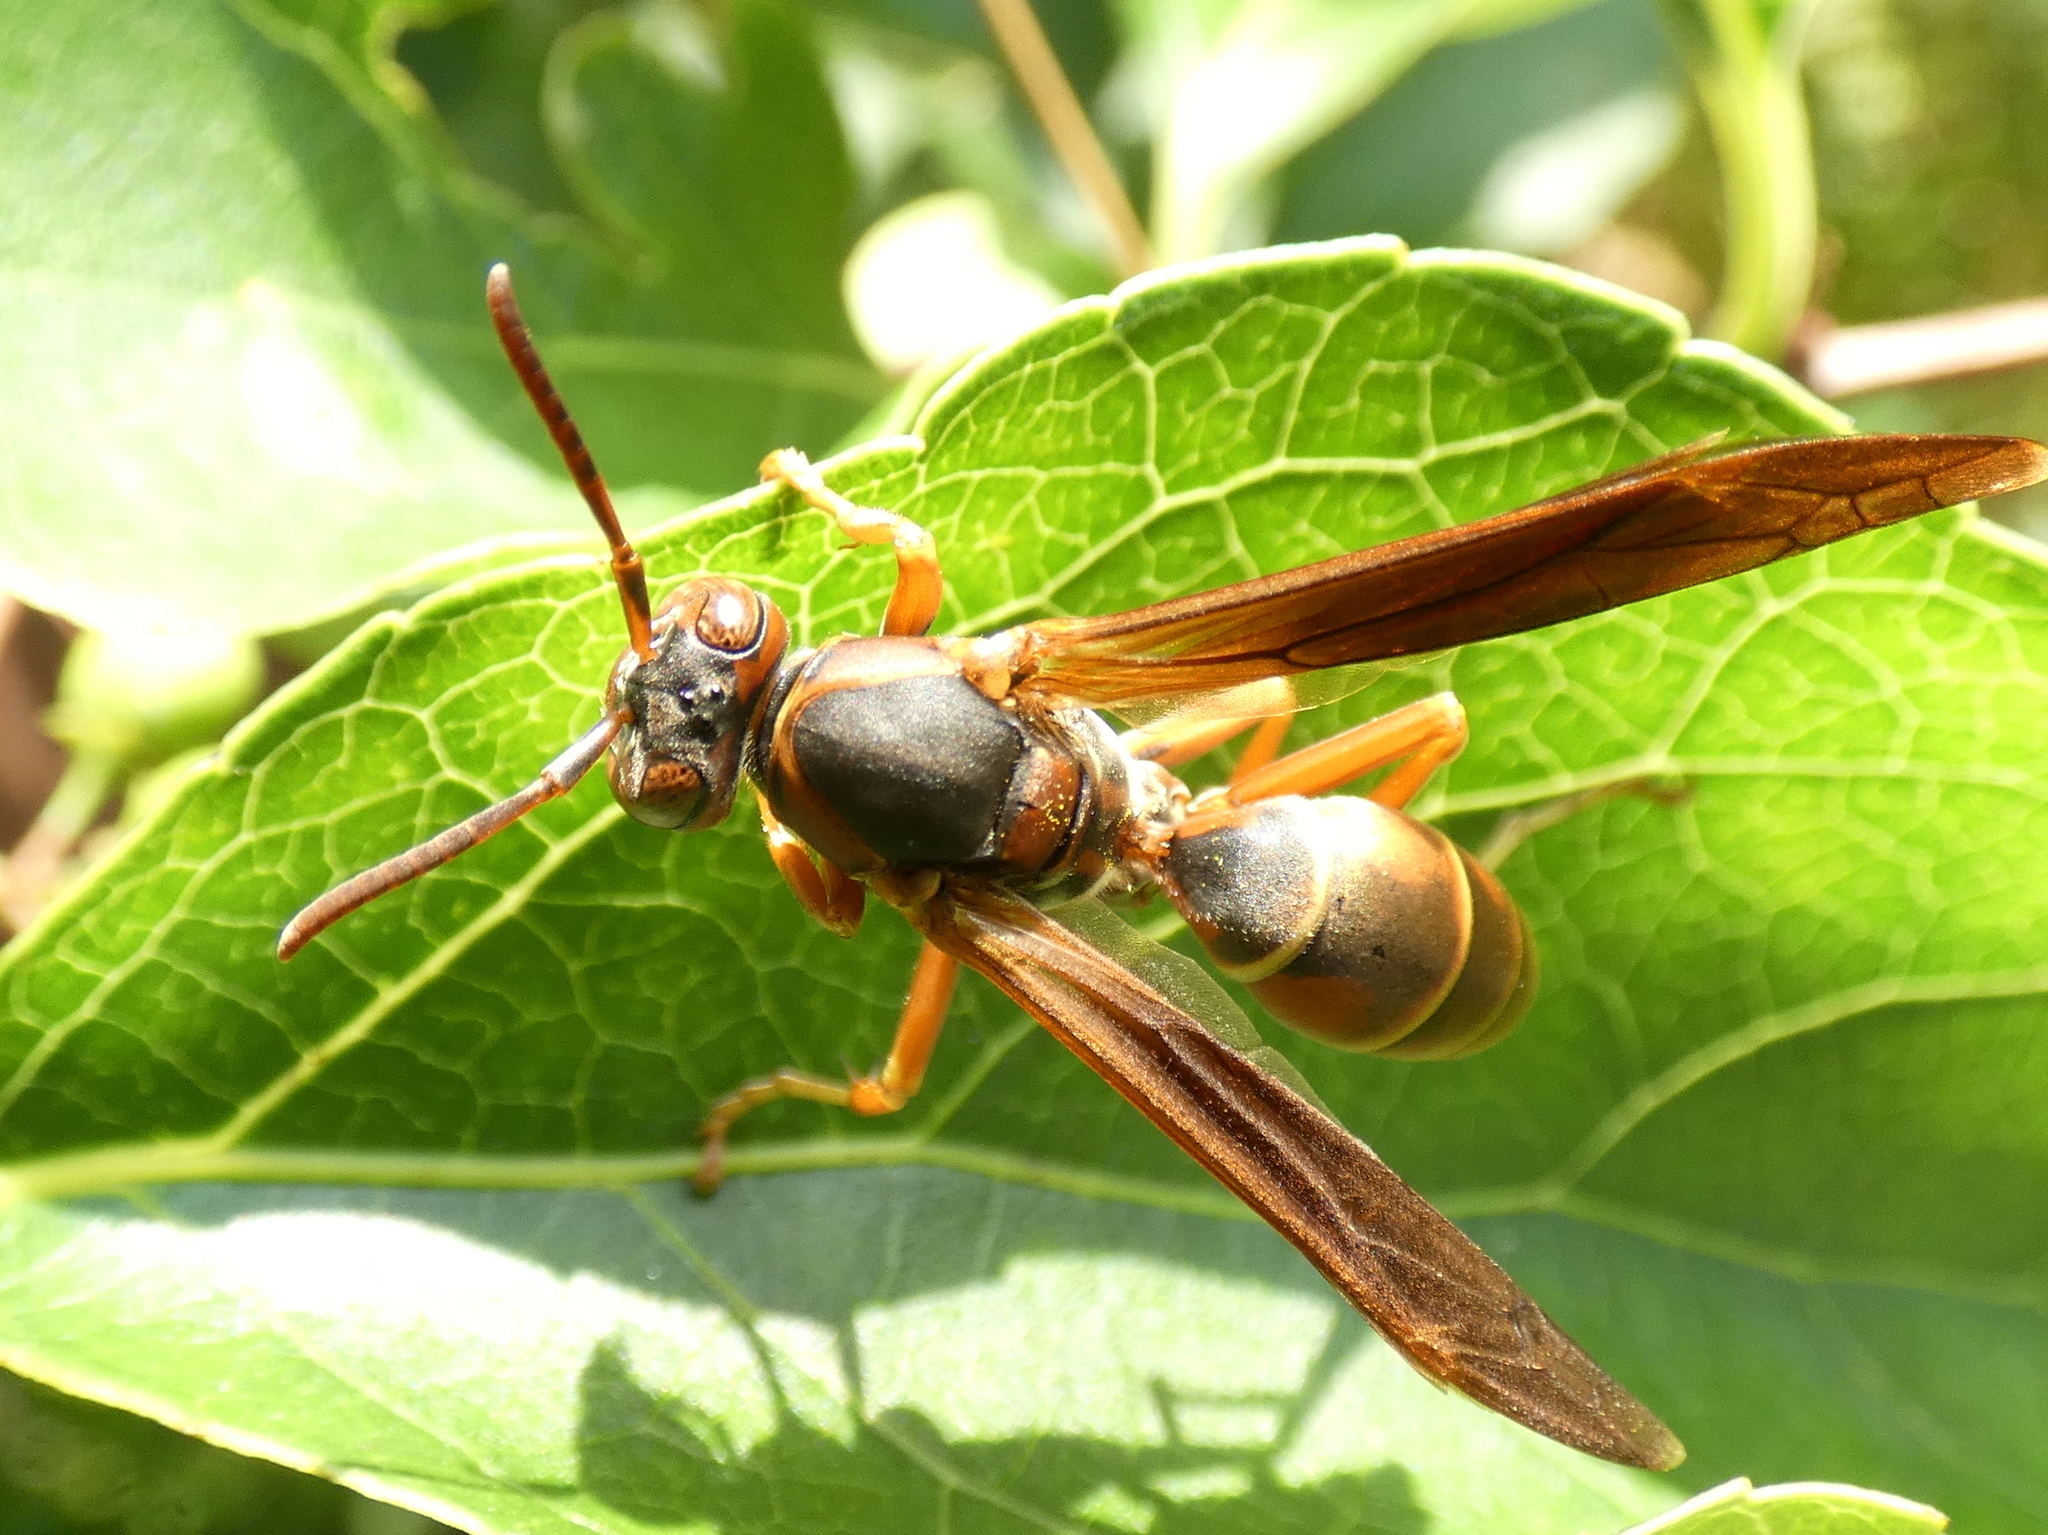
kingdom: Animalia
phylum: Arthropoda
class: Insecta
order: Hymenoptera
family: Eumenidae
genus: Polistes
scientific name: Polistes fuscatus
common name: Dark paper wasp
